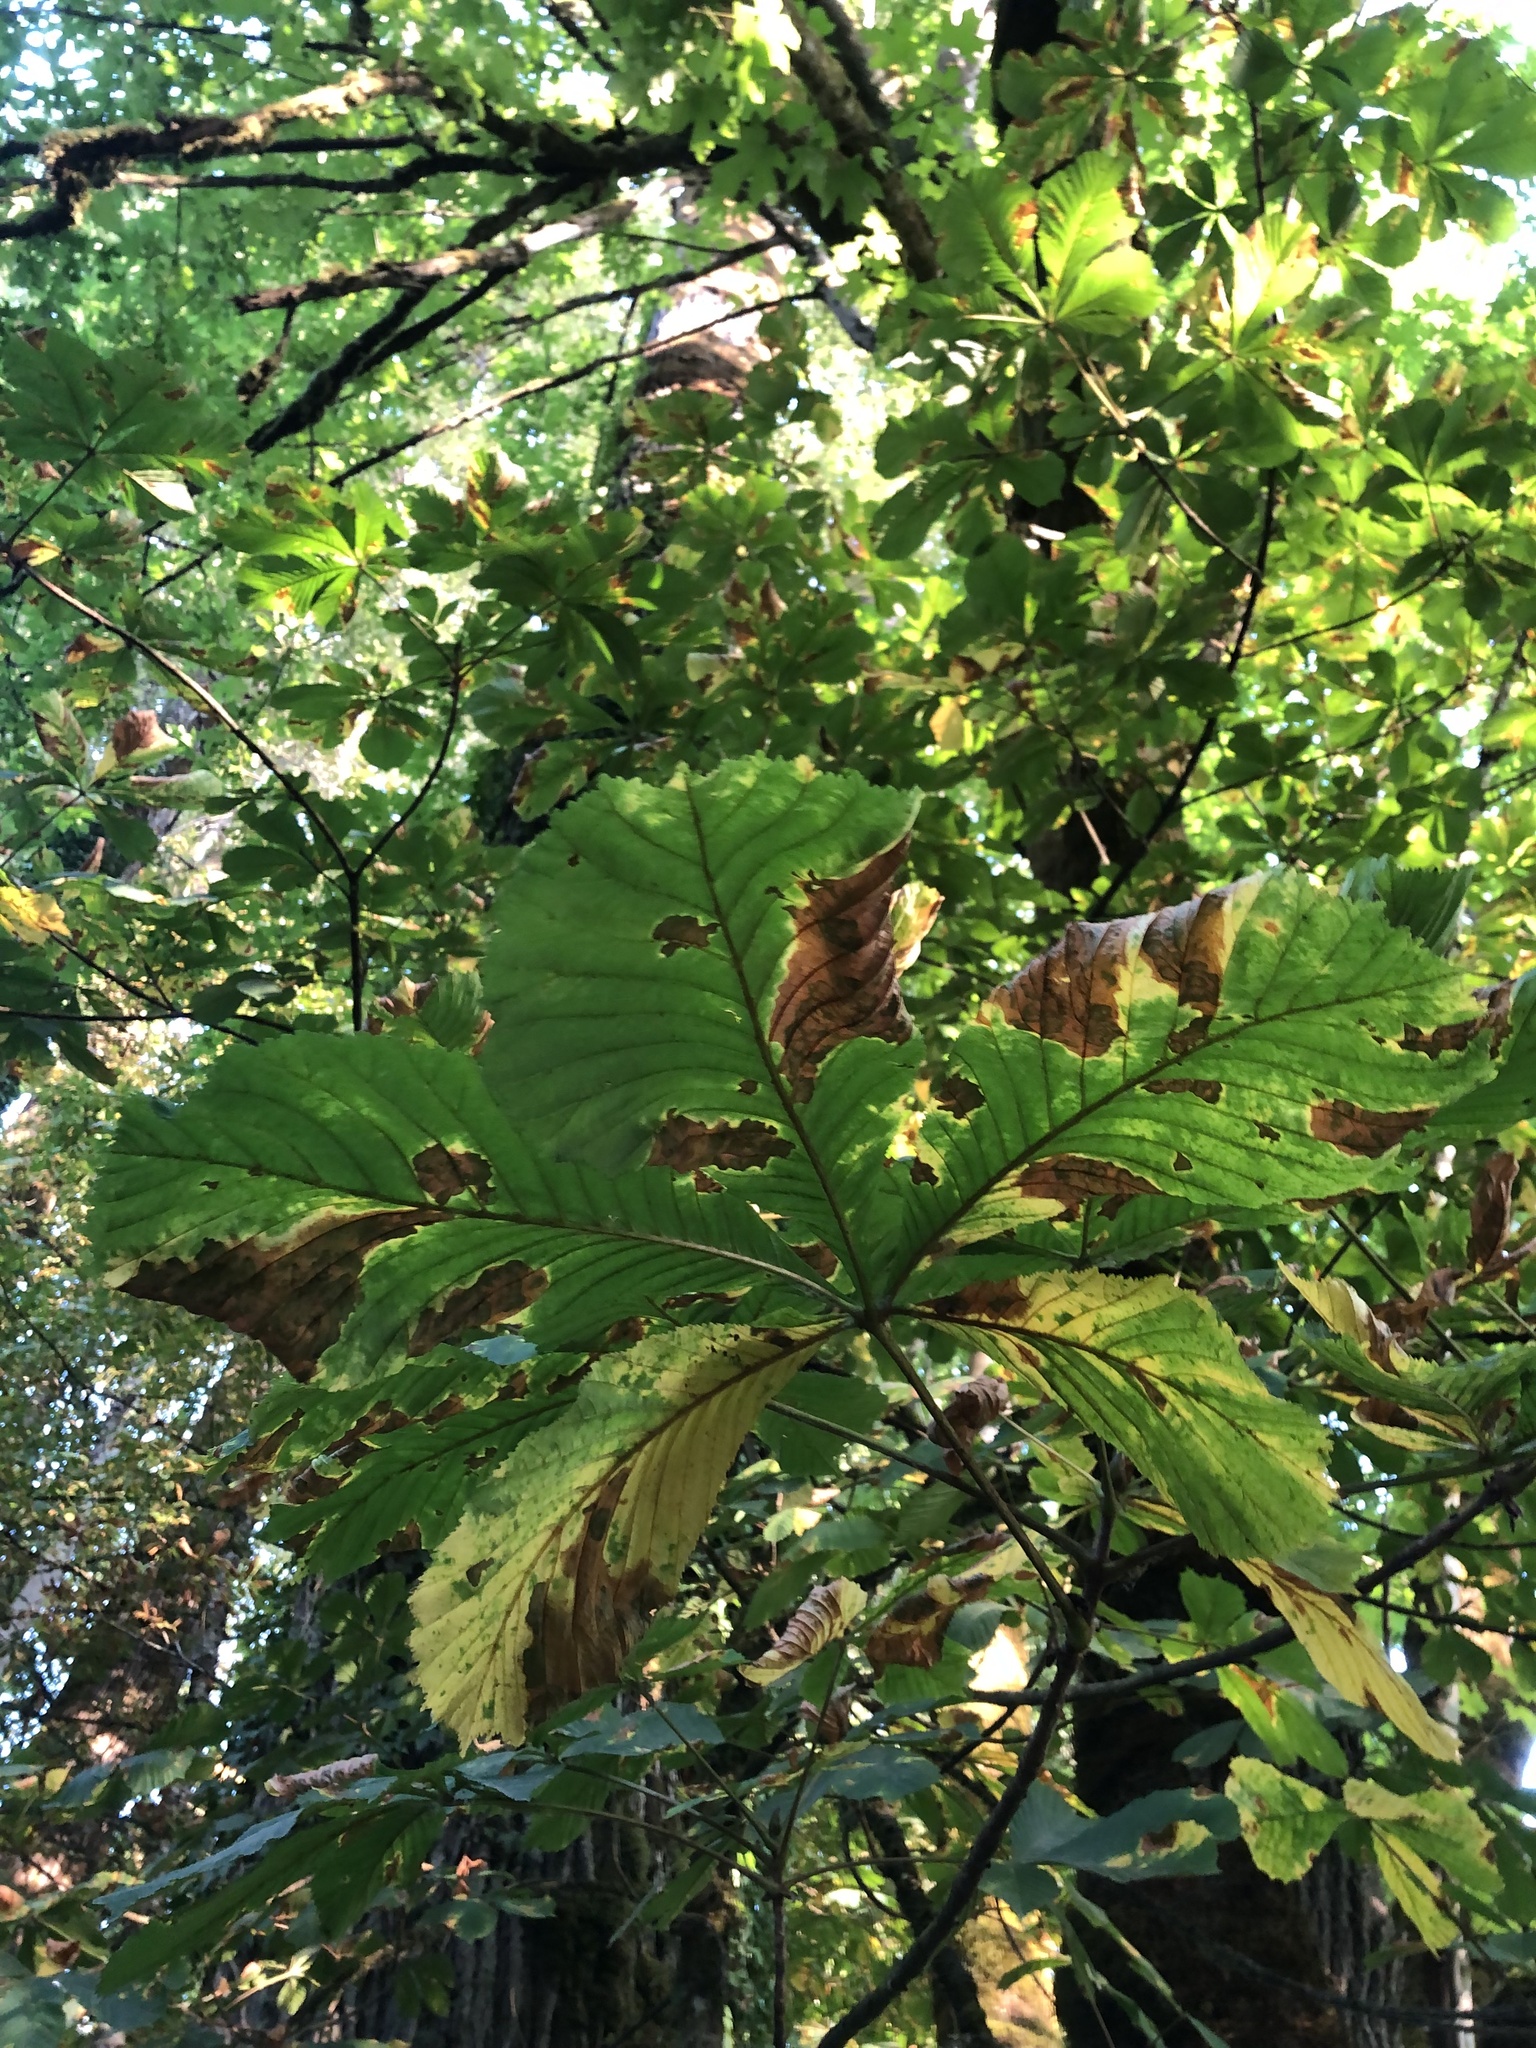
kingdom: Plantae
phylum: Tracheophyta
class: Magnoliopsida
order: Sapindales
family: Sapindaceae
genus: Aesculus
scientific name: Aesculus hippocastanum
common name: Horse-chestnut
